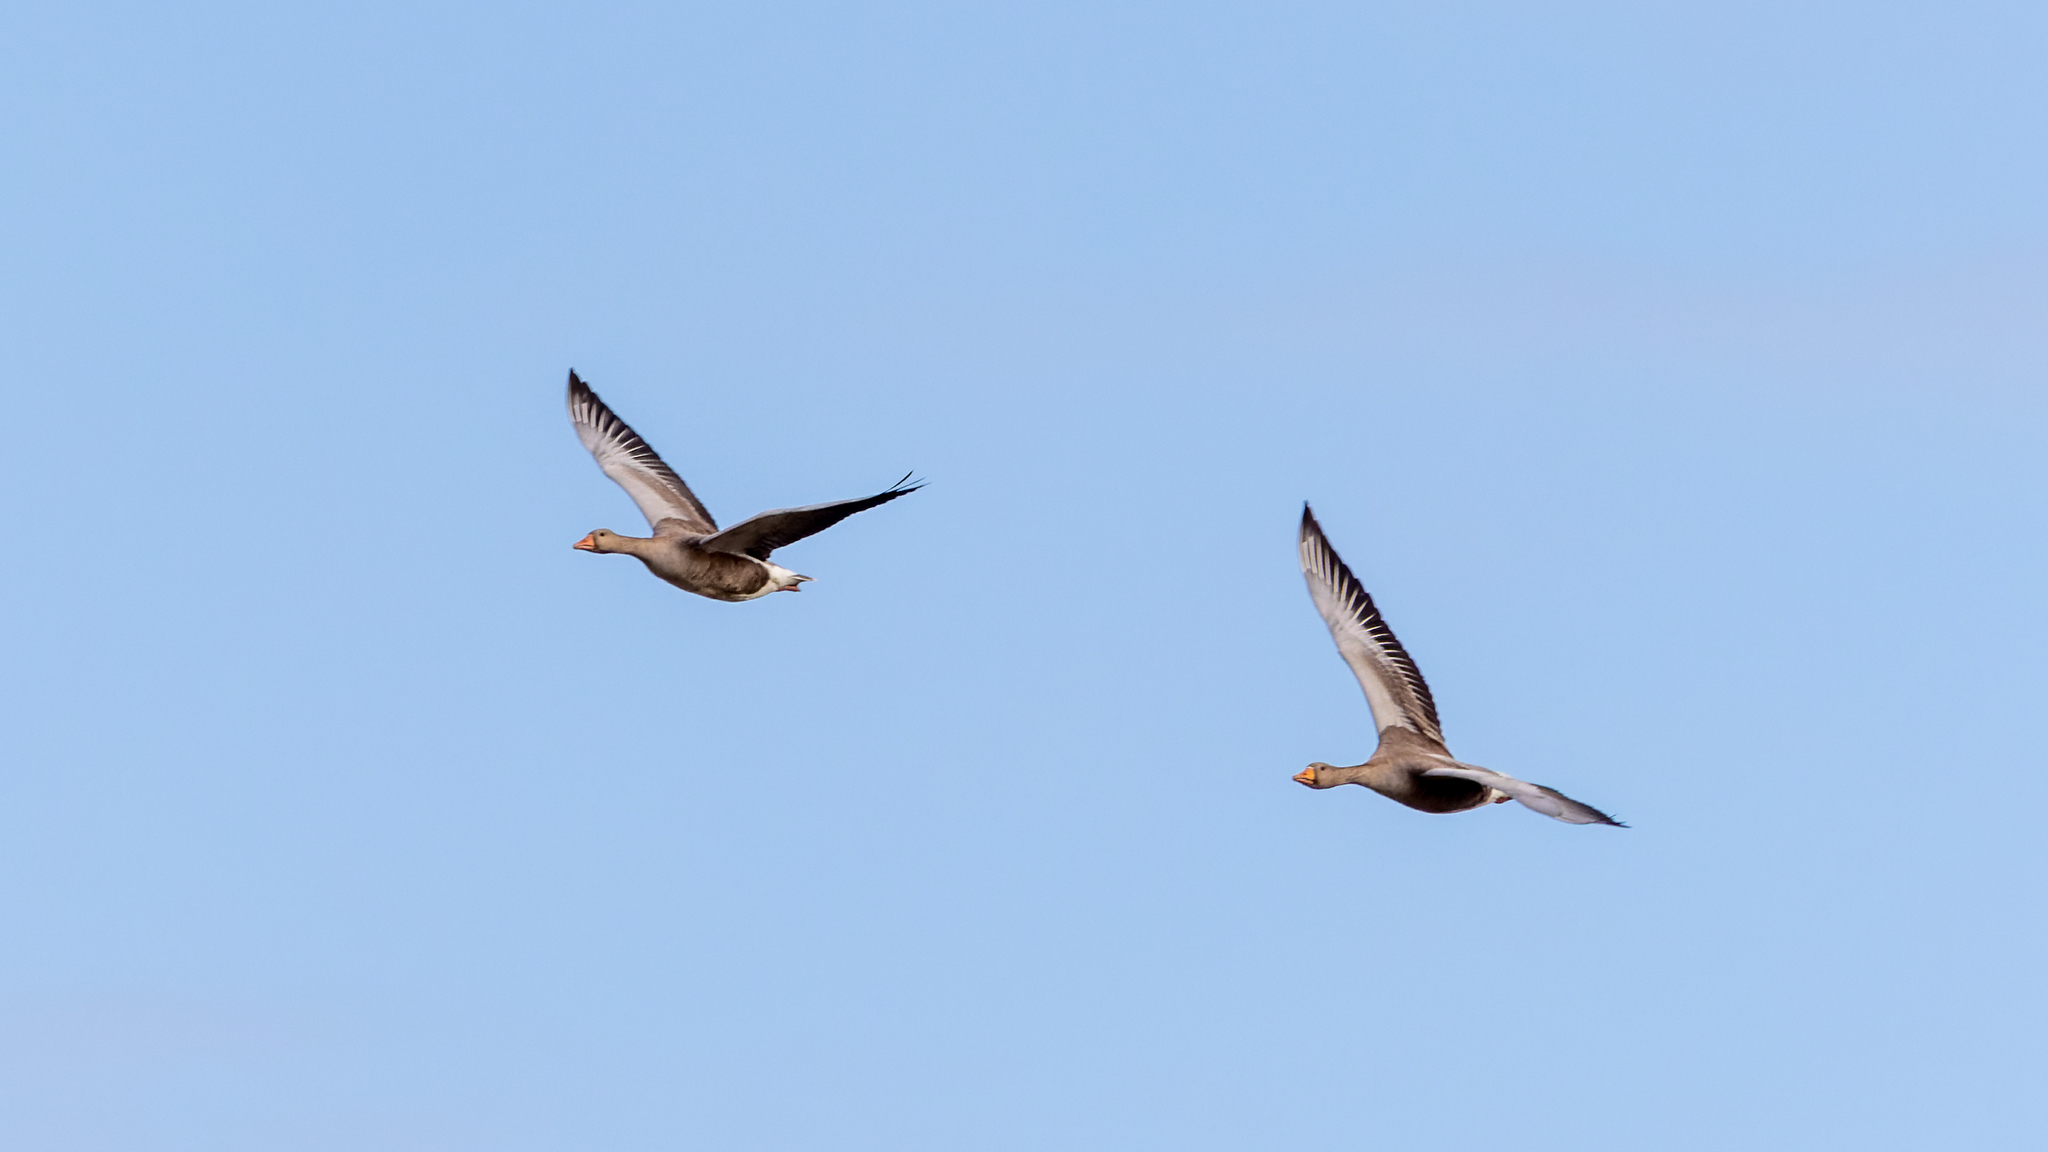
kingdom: Animalia
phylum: Chordata
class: Aves
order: Anseriformes
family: Anatidae
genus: Anser
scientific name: Anser anser
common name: Greylag goose
